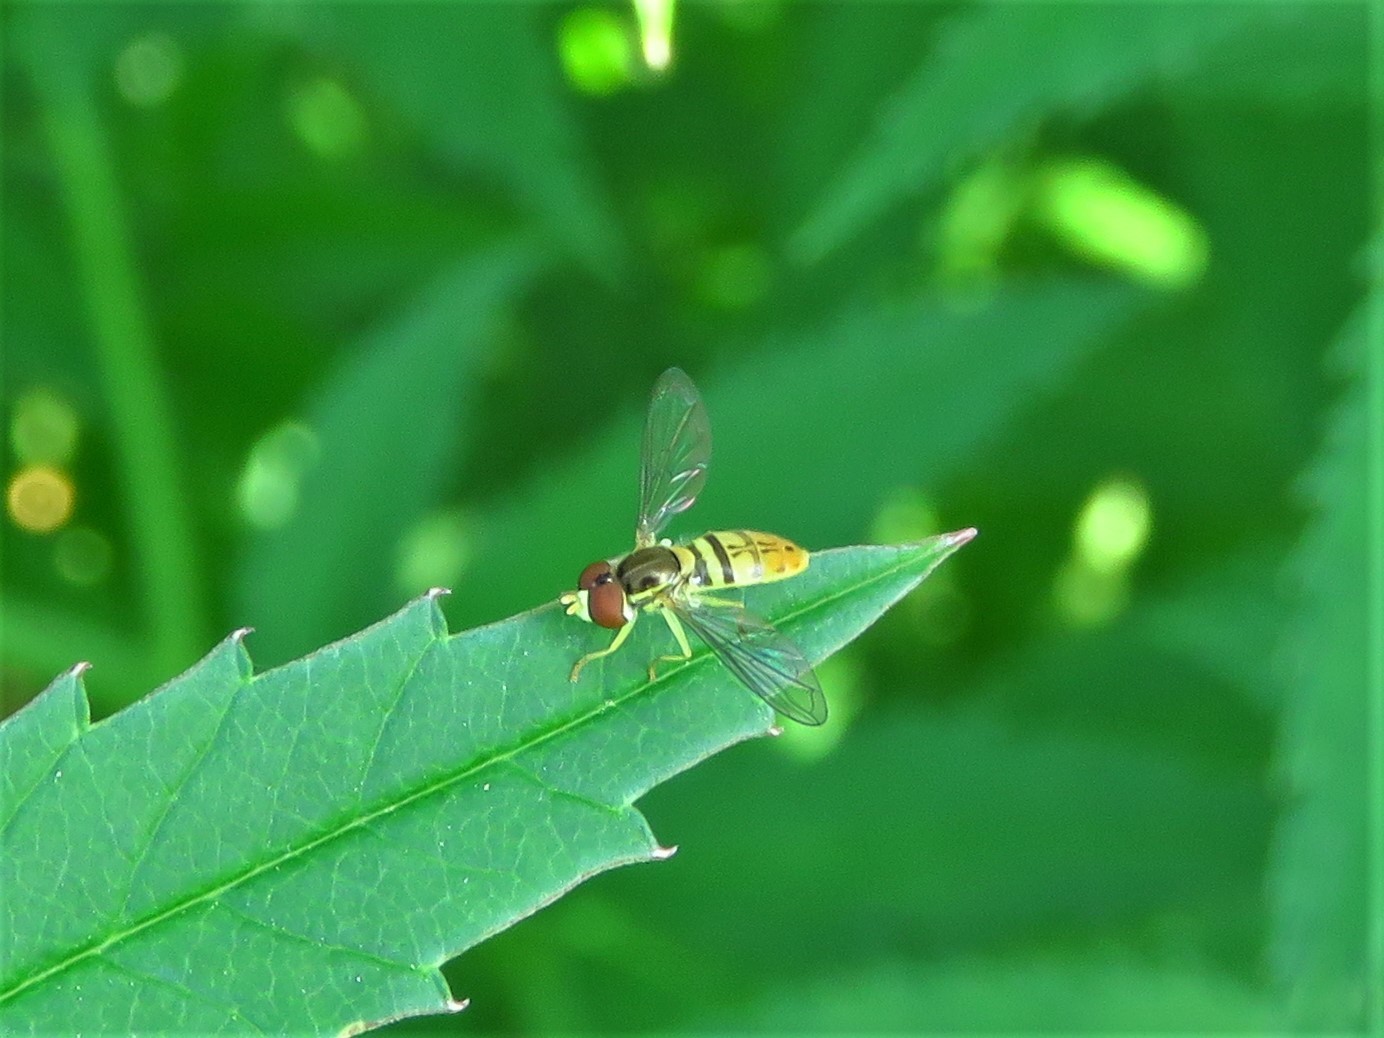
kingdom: Animalia
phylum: Arthropoda
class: Insecta
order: Diptera
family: Syrphidae
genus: Toxomerus
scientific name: Toxomerus marginatus
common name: Syrphid fly
